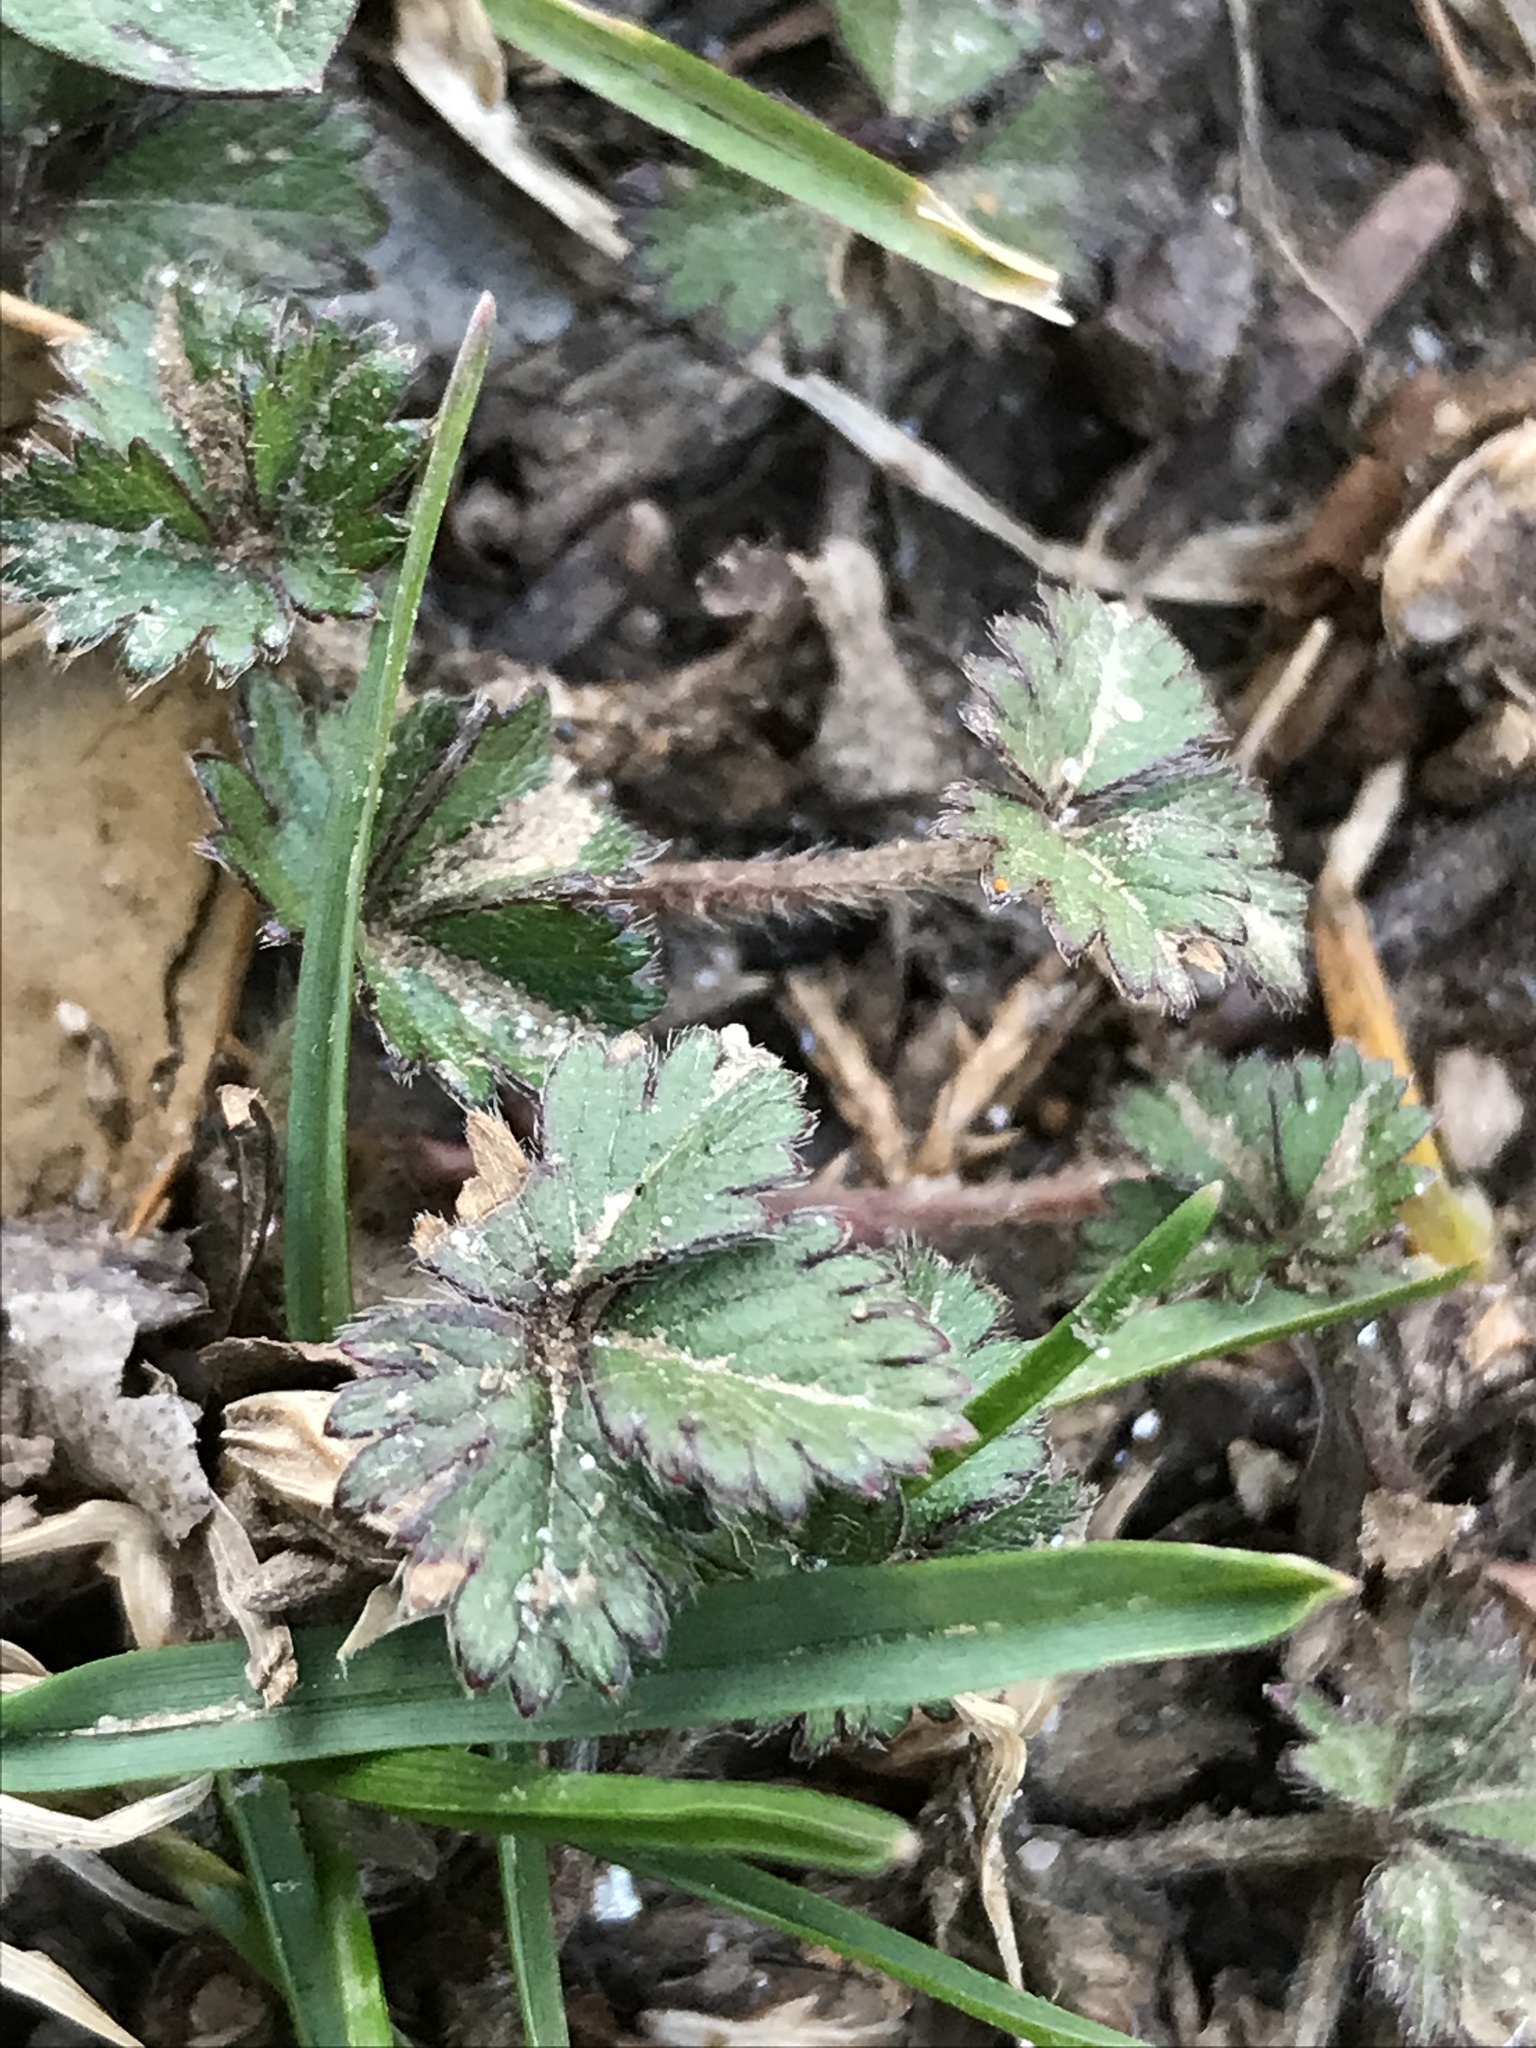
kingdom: Plantae
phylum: Tracheophyta
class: Magnoliopsida
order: Rosales
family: Rosaceae
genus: Potentilla
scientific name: Potentilla indica
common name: Yellow-flowered strawberry
